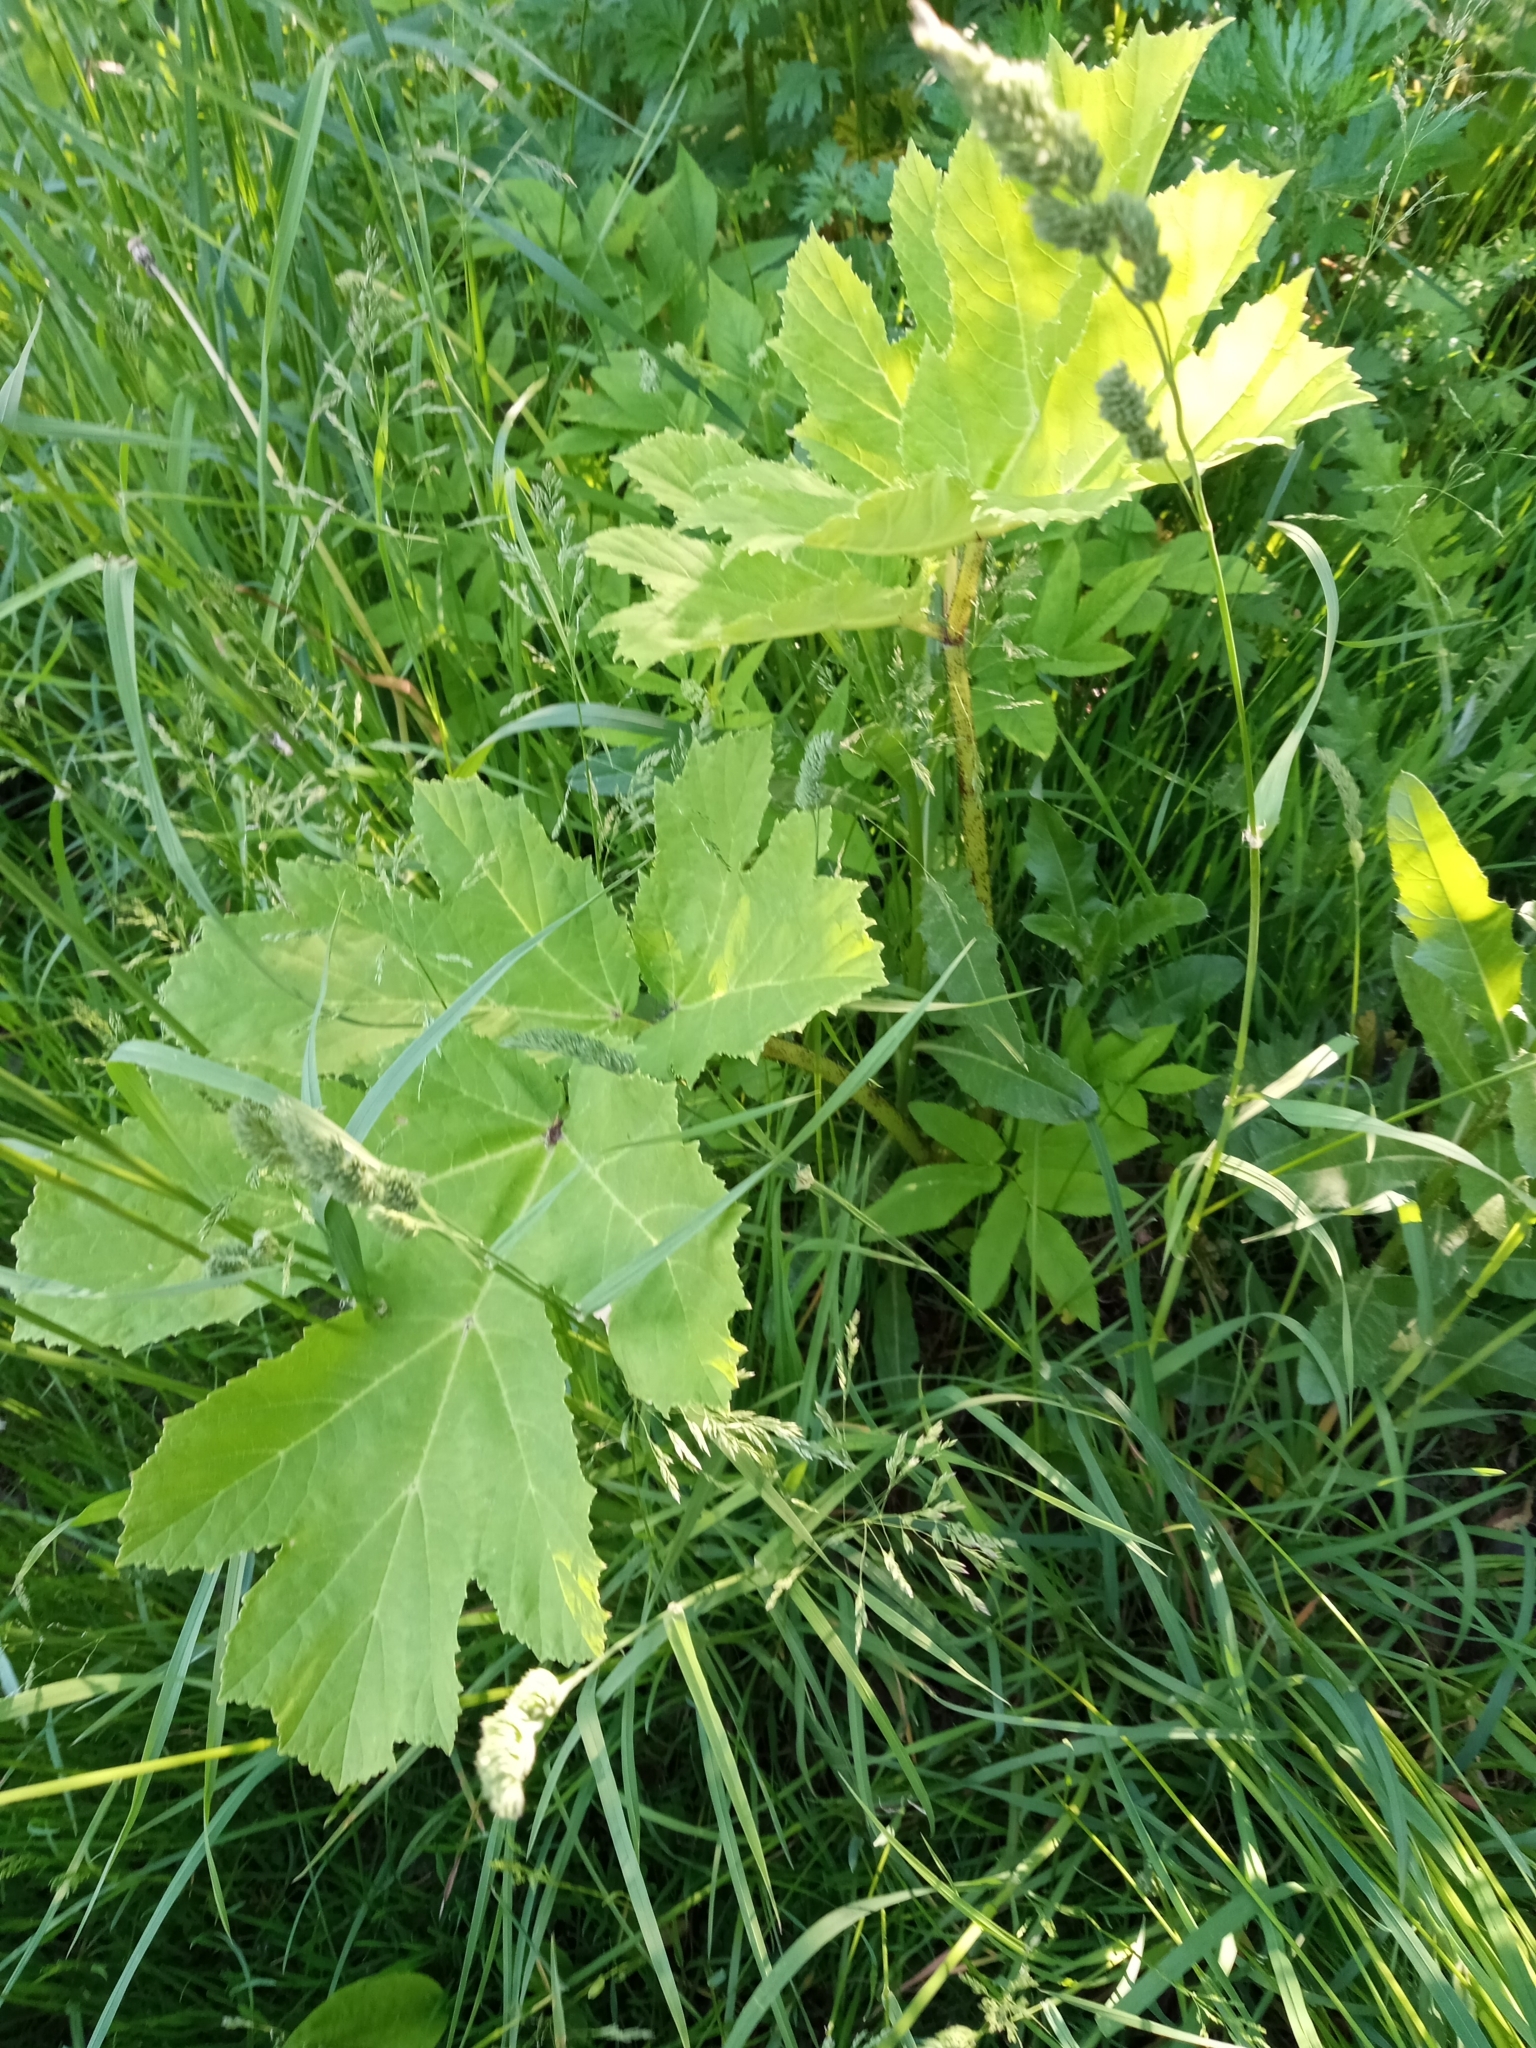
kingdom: Plantae
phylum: Tracheophyta
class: Magnoliopsida
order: Apiales
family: Apiaceae
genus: Heracleum
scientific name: Heracleum sosnowskyi
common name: Sosnowsky's hogweed
